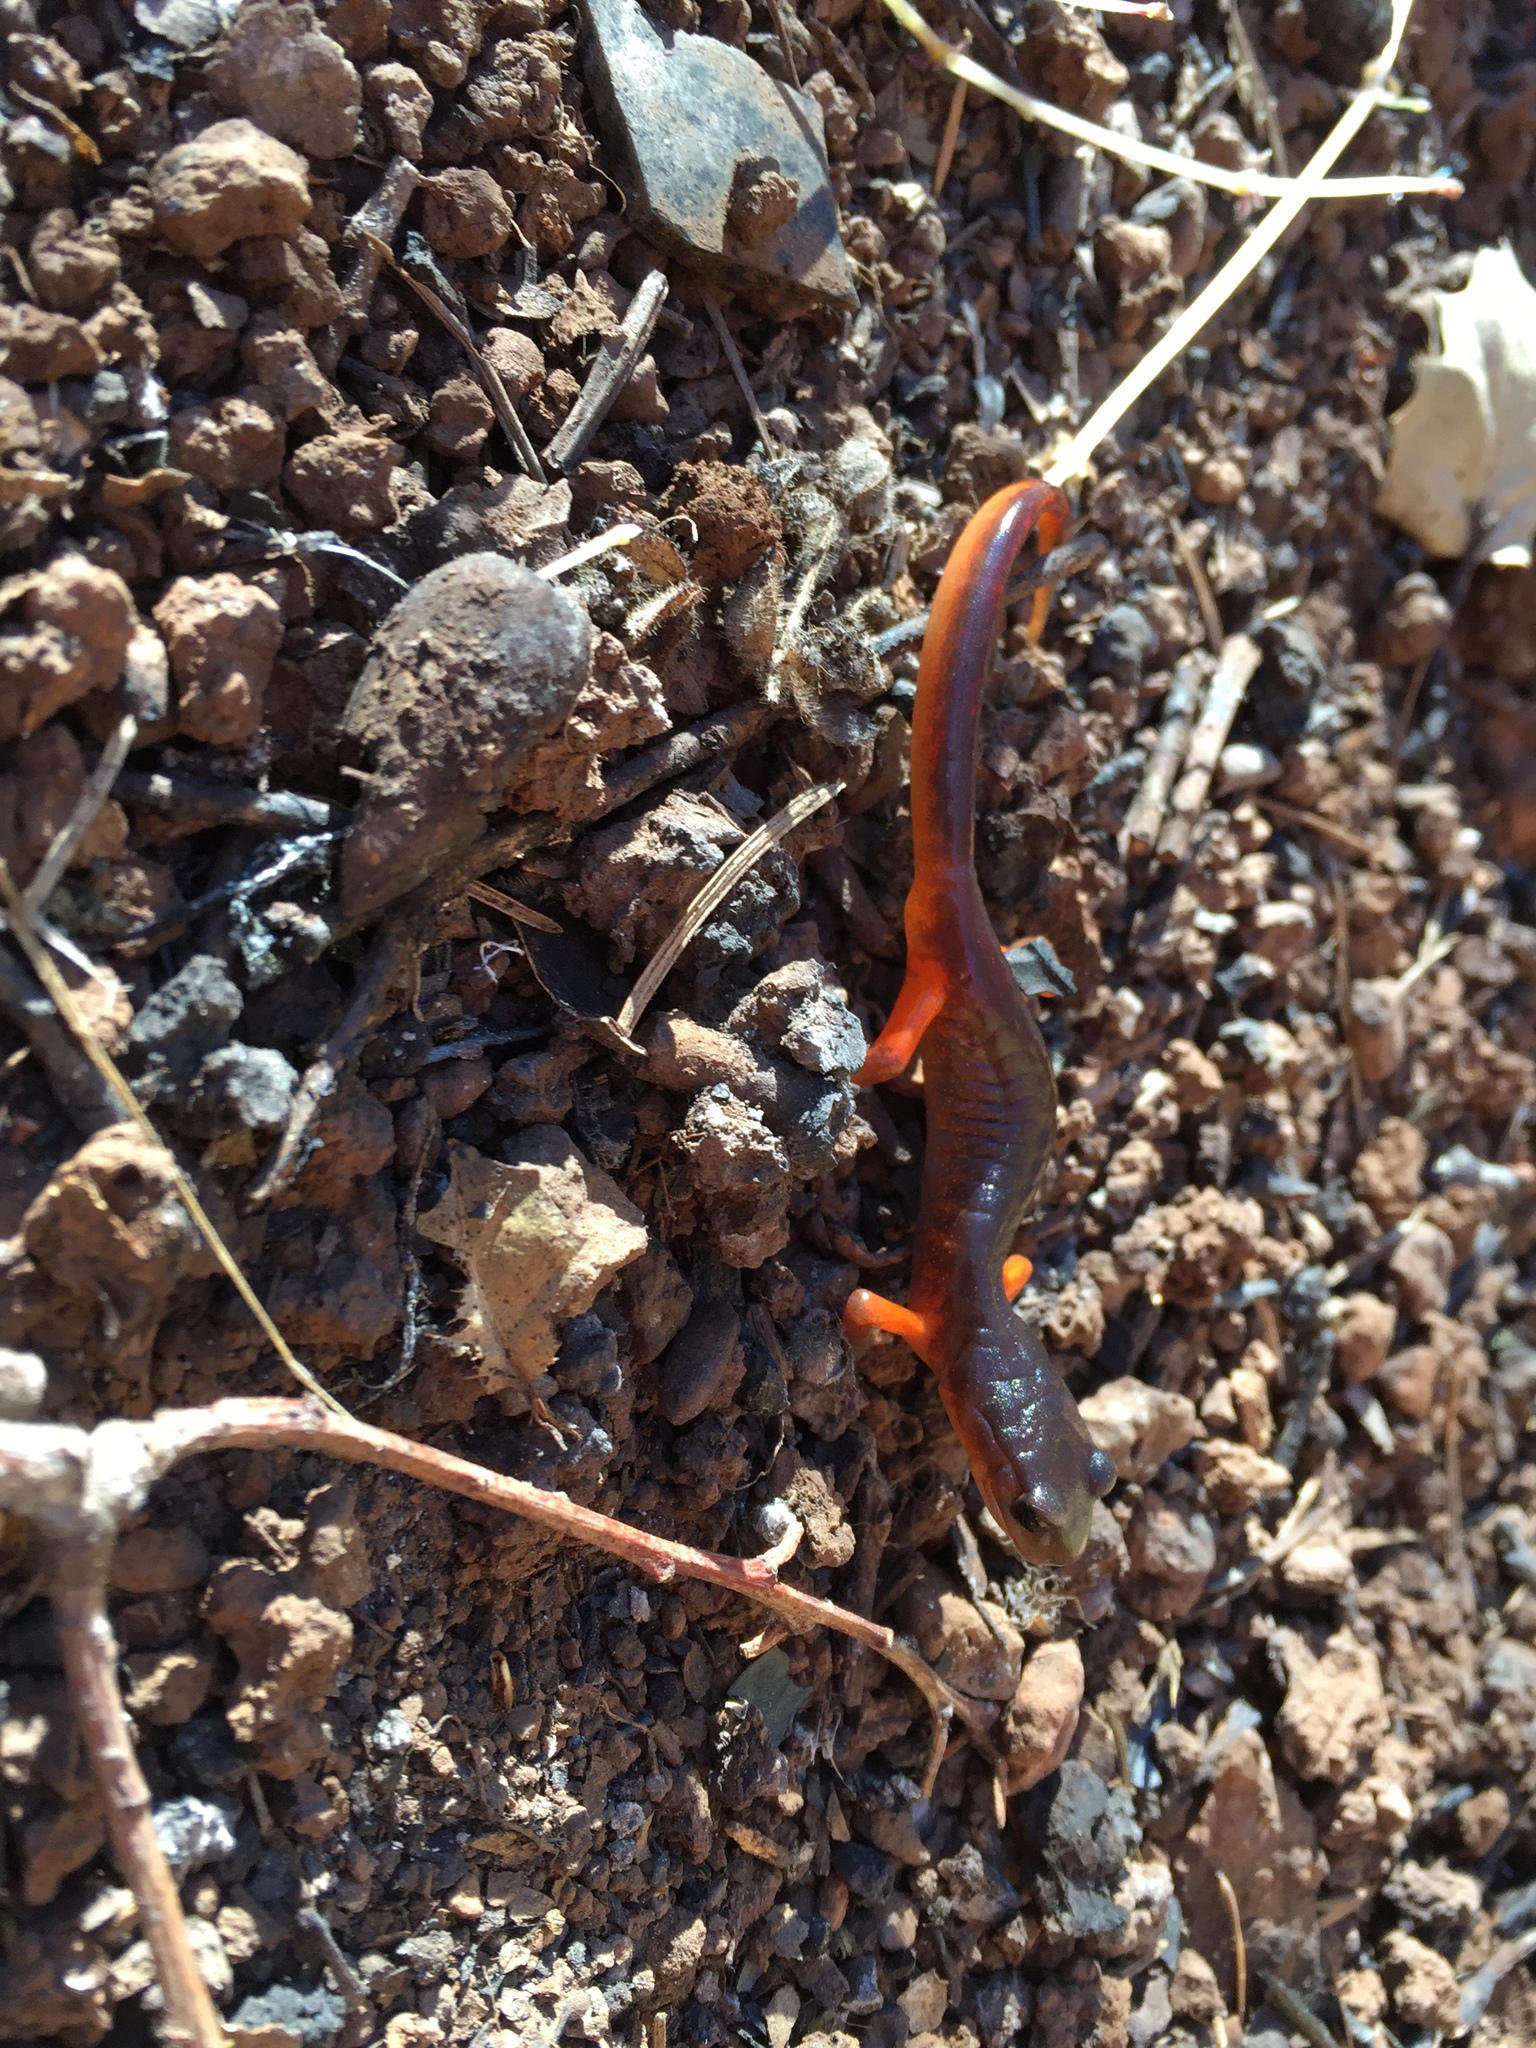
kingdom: Animalia
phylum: Chordata
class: Amphibia
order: Caudata
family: Plethodontidae
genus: Ensatina
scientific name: Ensatina eschscholtzii
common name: Ensatina
